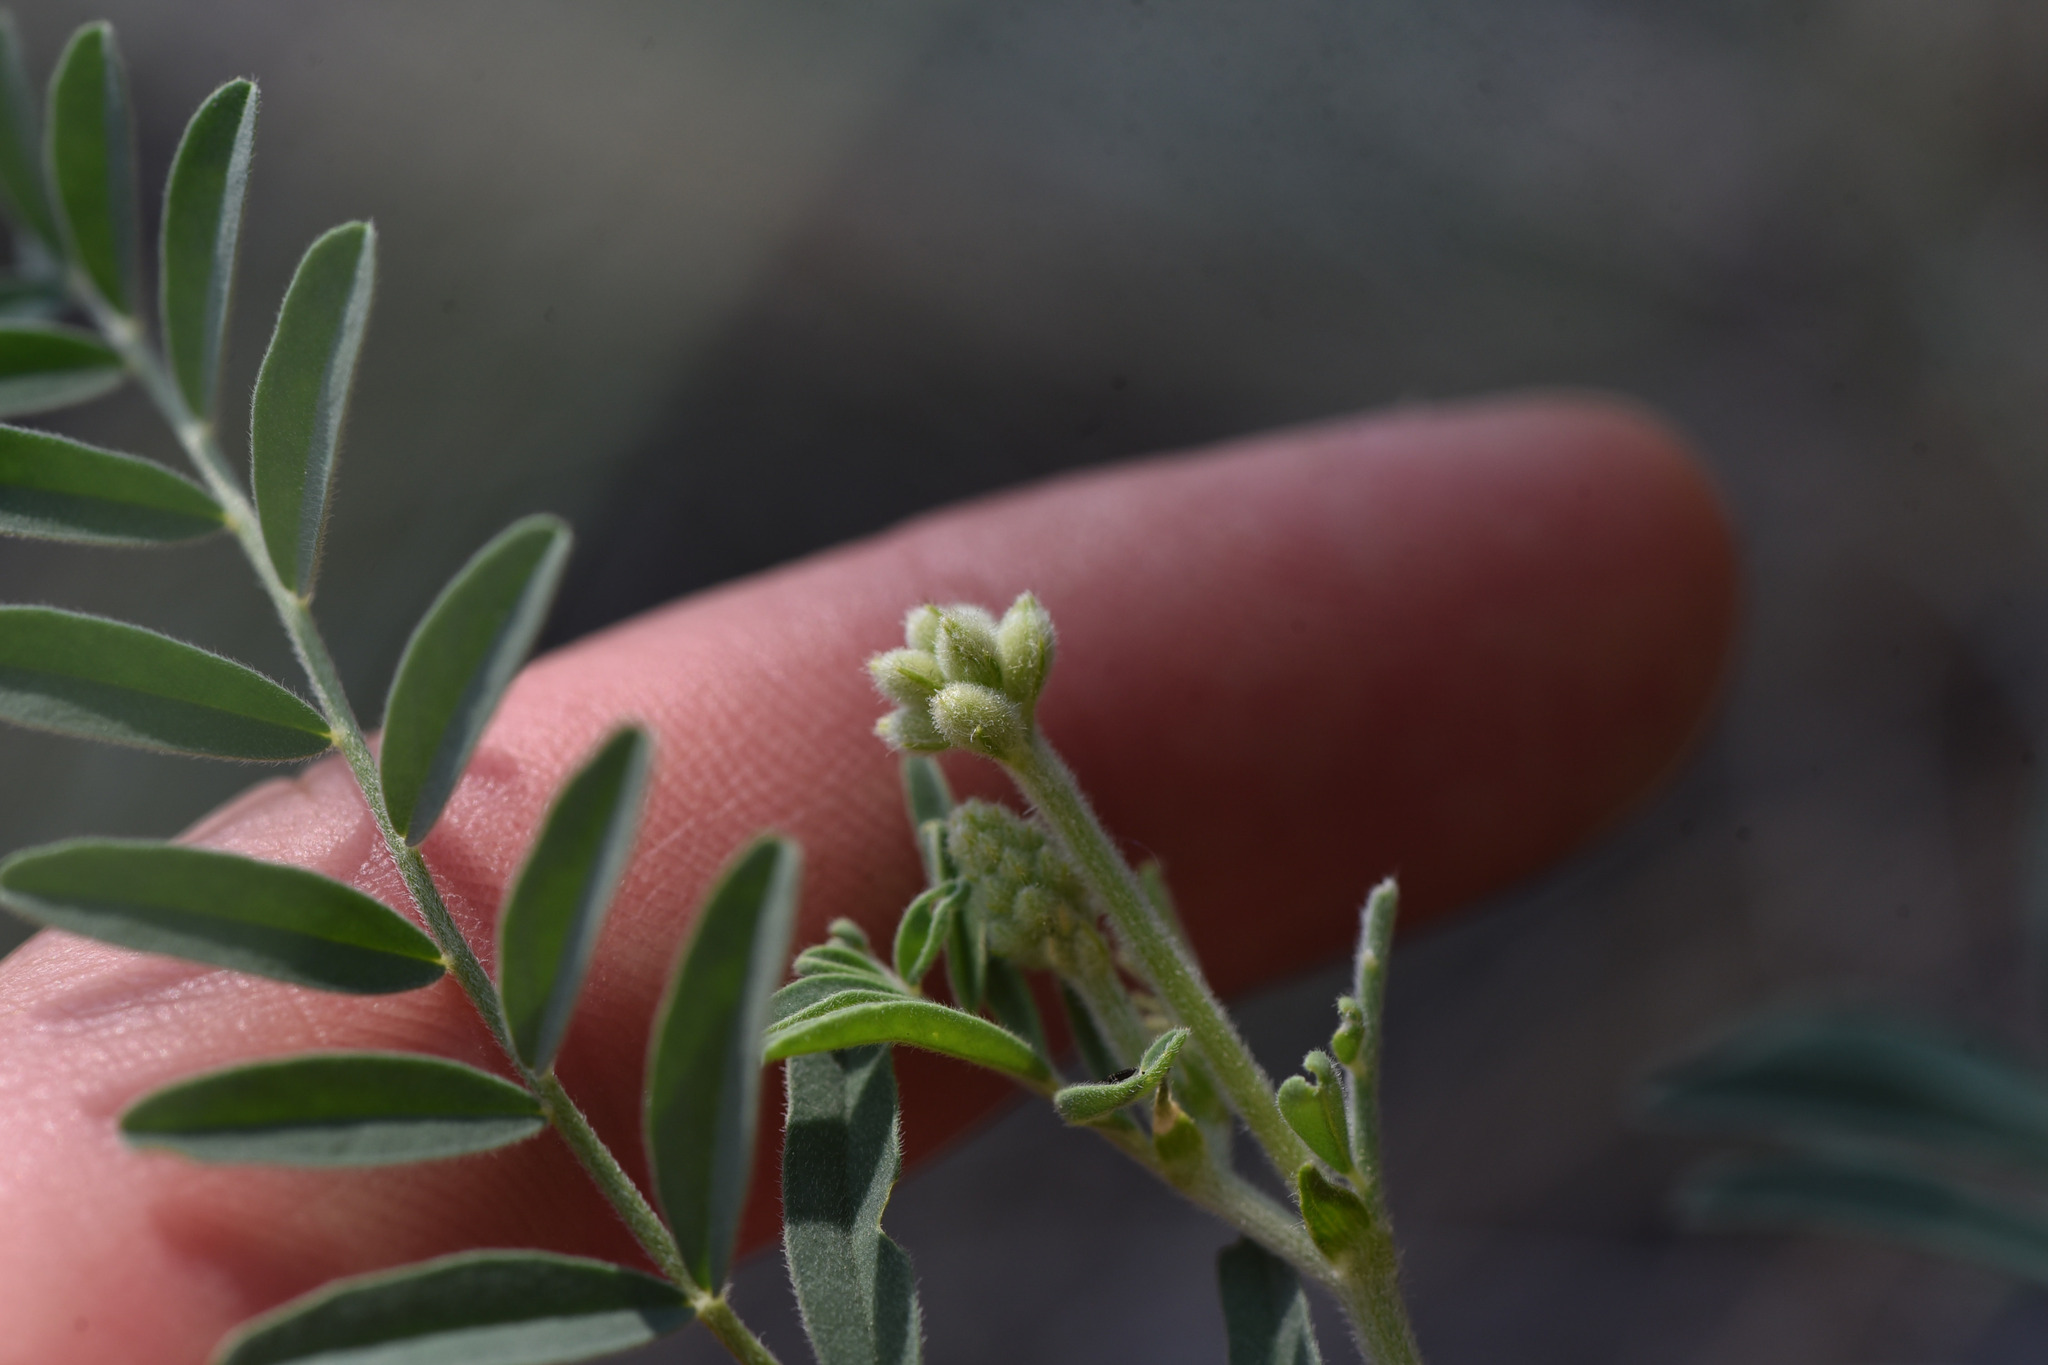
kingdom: Plantae
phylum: Tracheophyta
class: Magnoliopsida
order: Fabales
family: Fabaceae
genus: Astragalus
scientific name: Astragalus collinus
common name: Hill milk-vetch
